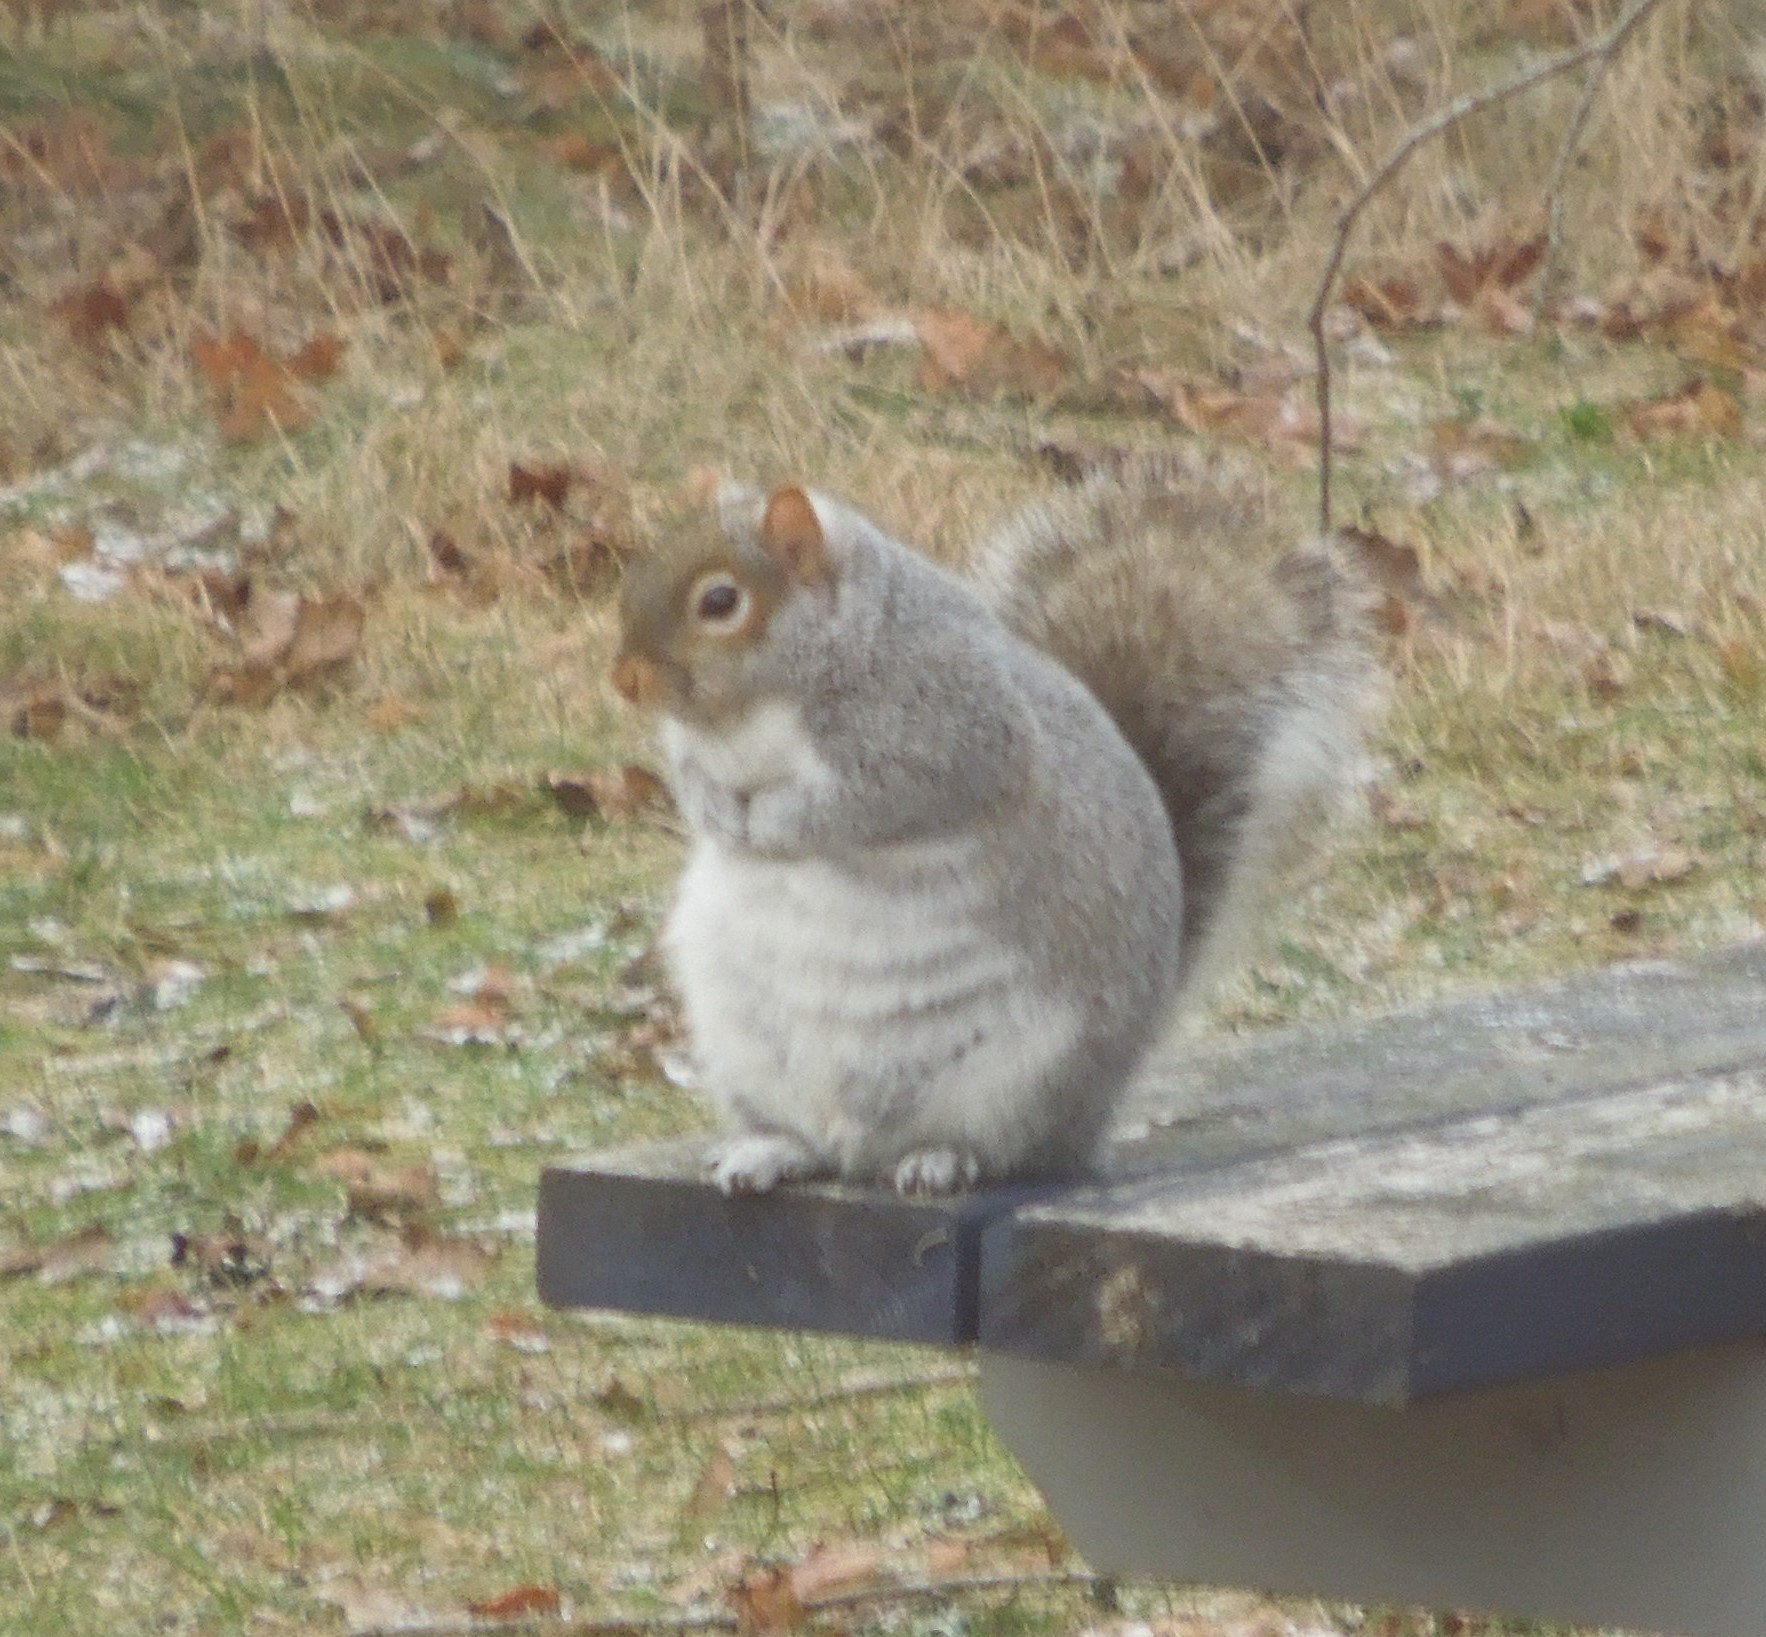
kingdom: Animalia
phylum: Chordata
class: Mammalia
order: Rodentia
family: Sciuridae
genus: Sciurus
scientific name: Sciurus carolinensis
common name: Eastern gray squirrel
